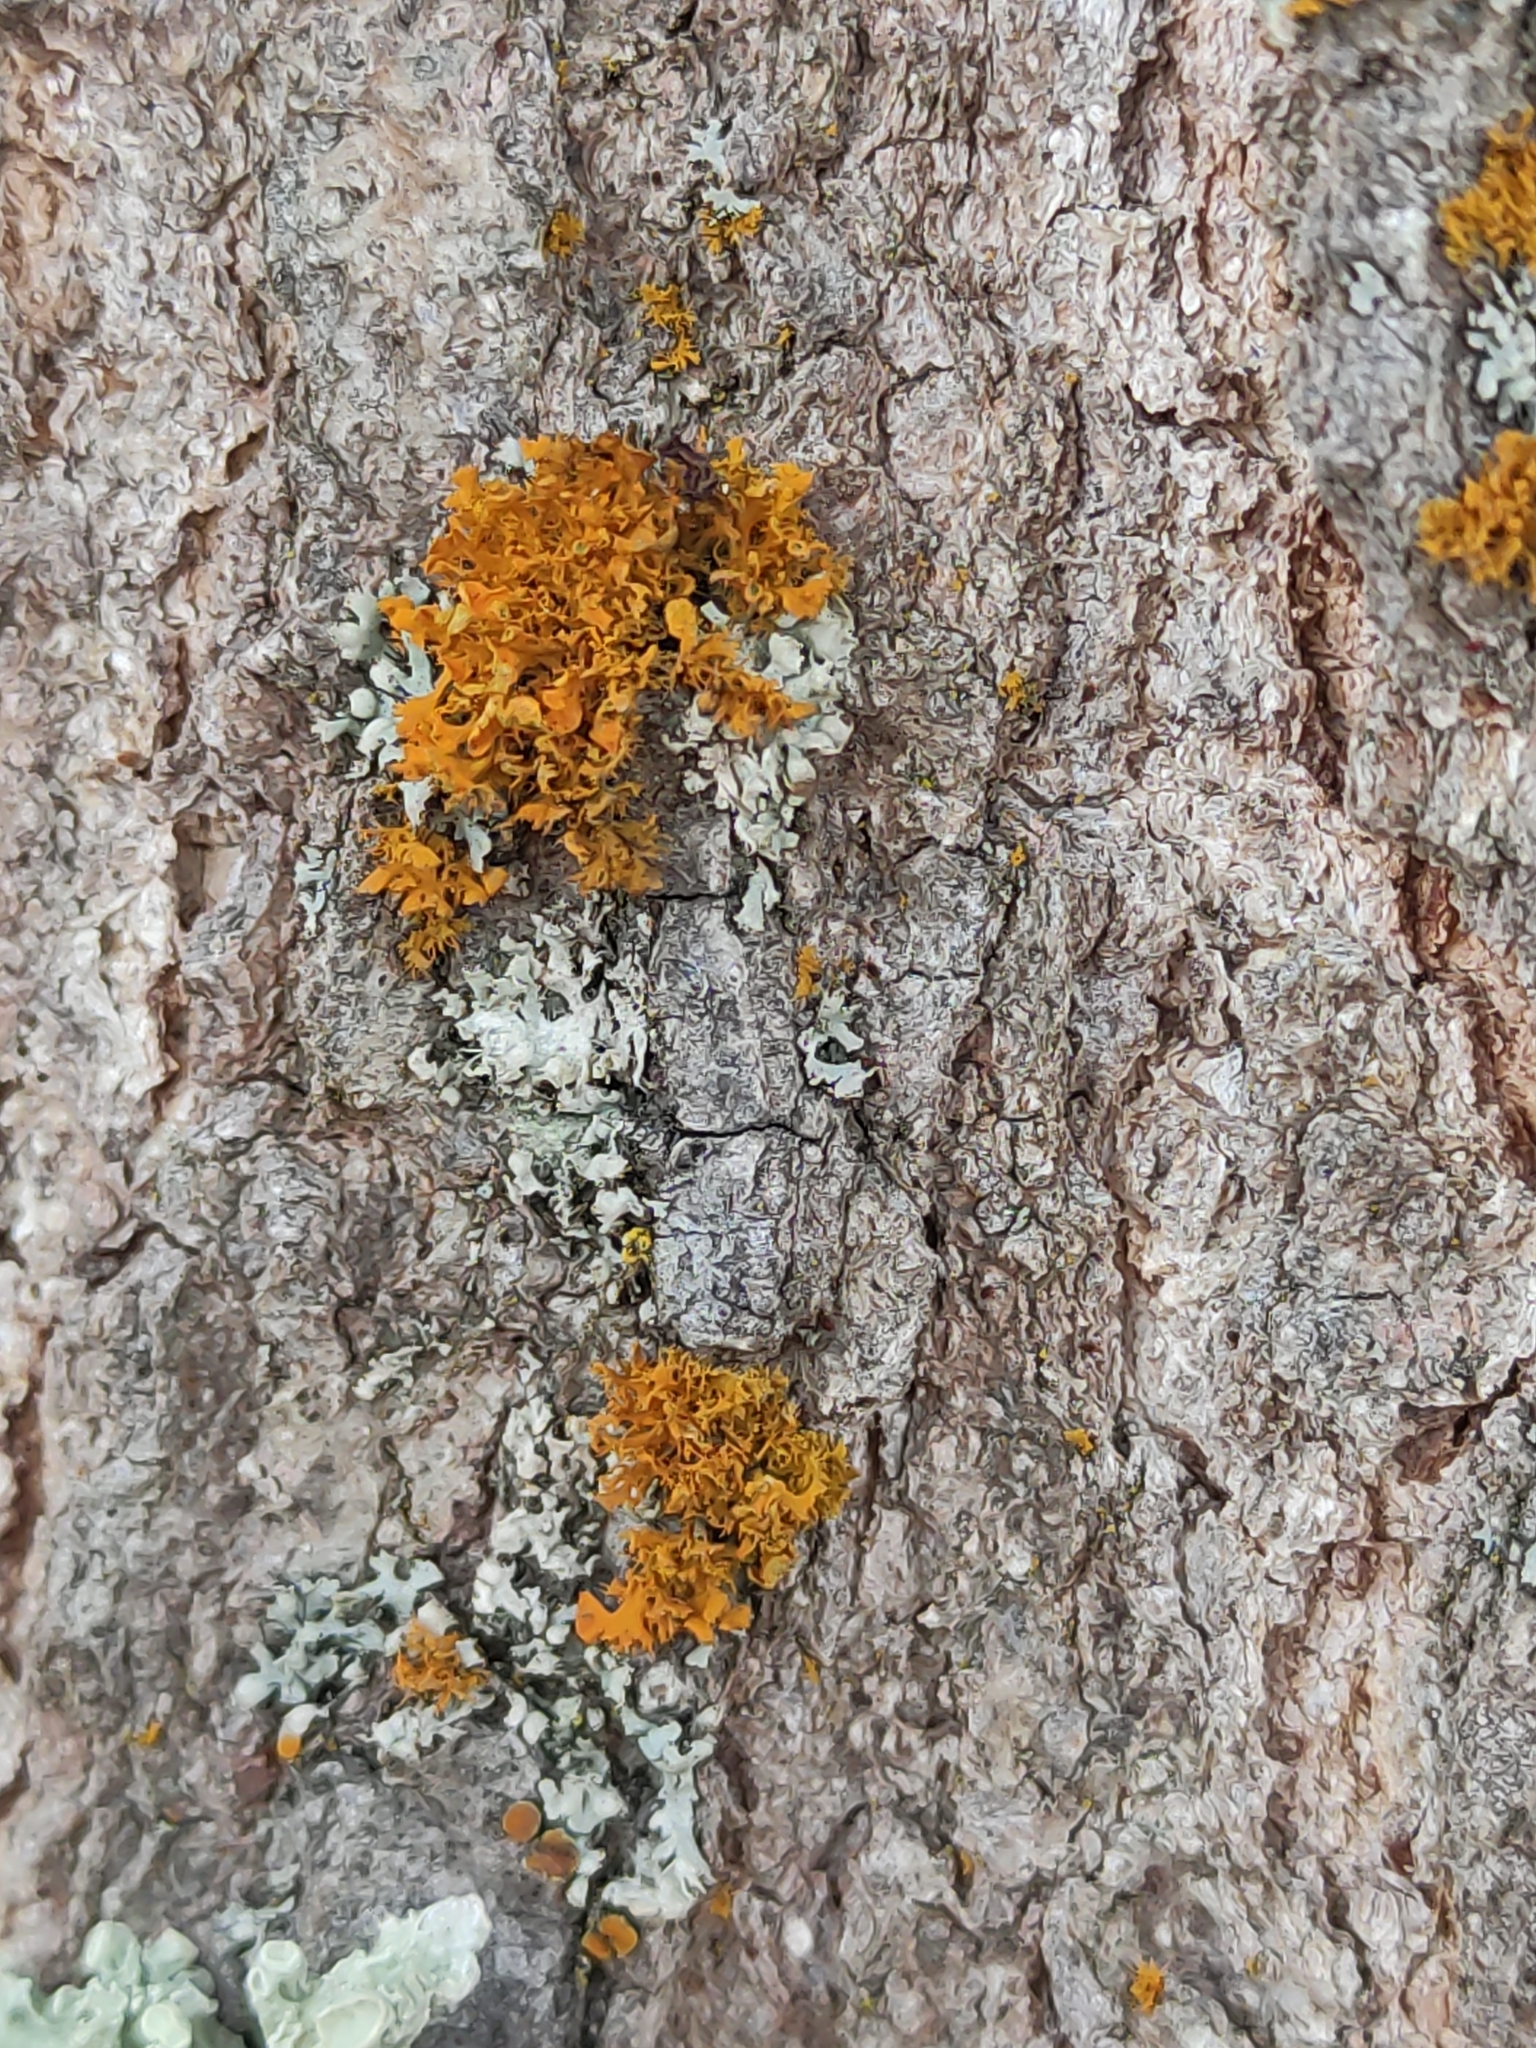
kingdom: Fungi
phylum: Ascomycota
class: Lecanoromycetes
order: Teloschistales
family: Teloschistaceae
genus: Teloschistes
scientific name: Teloschistes velifer
